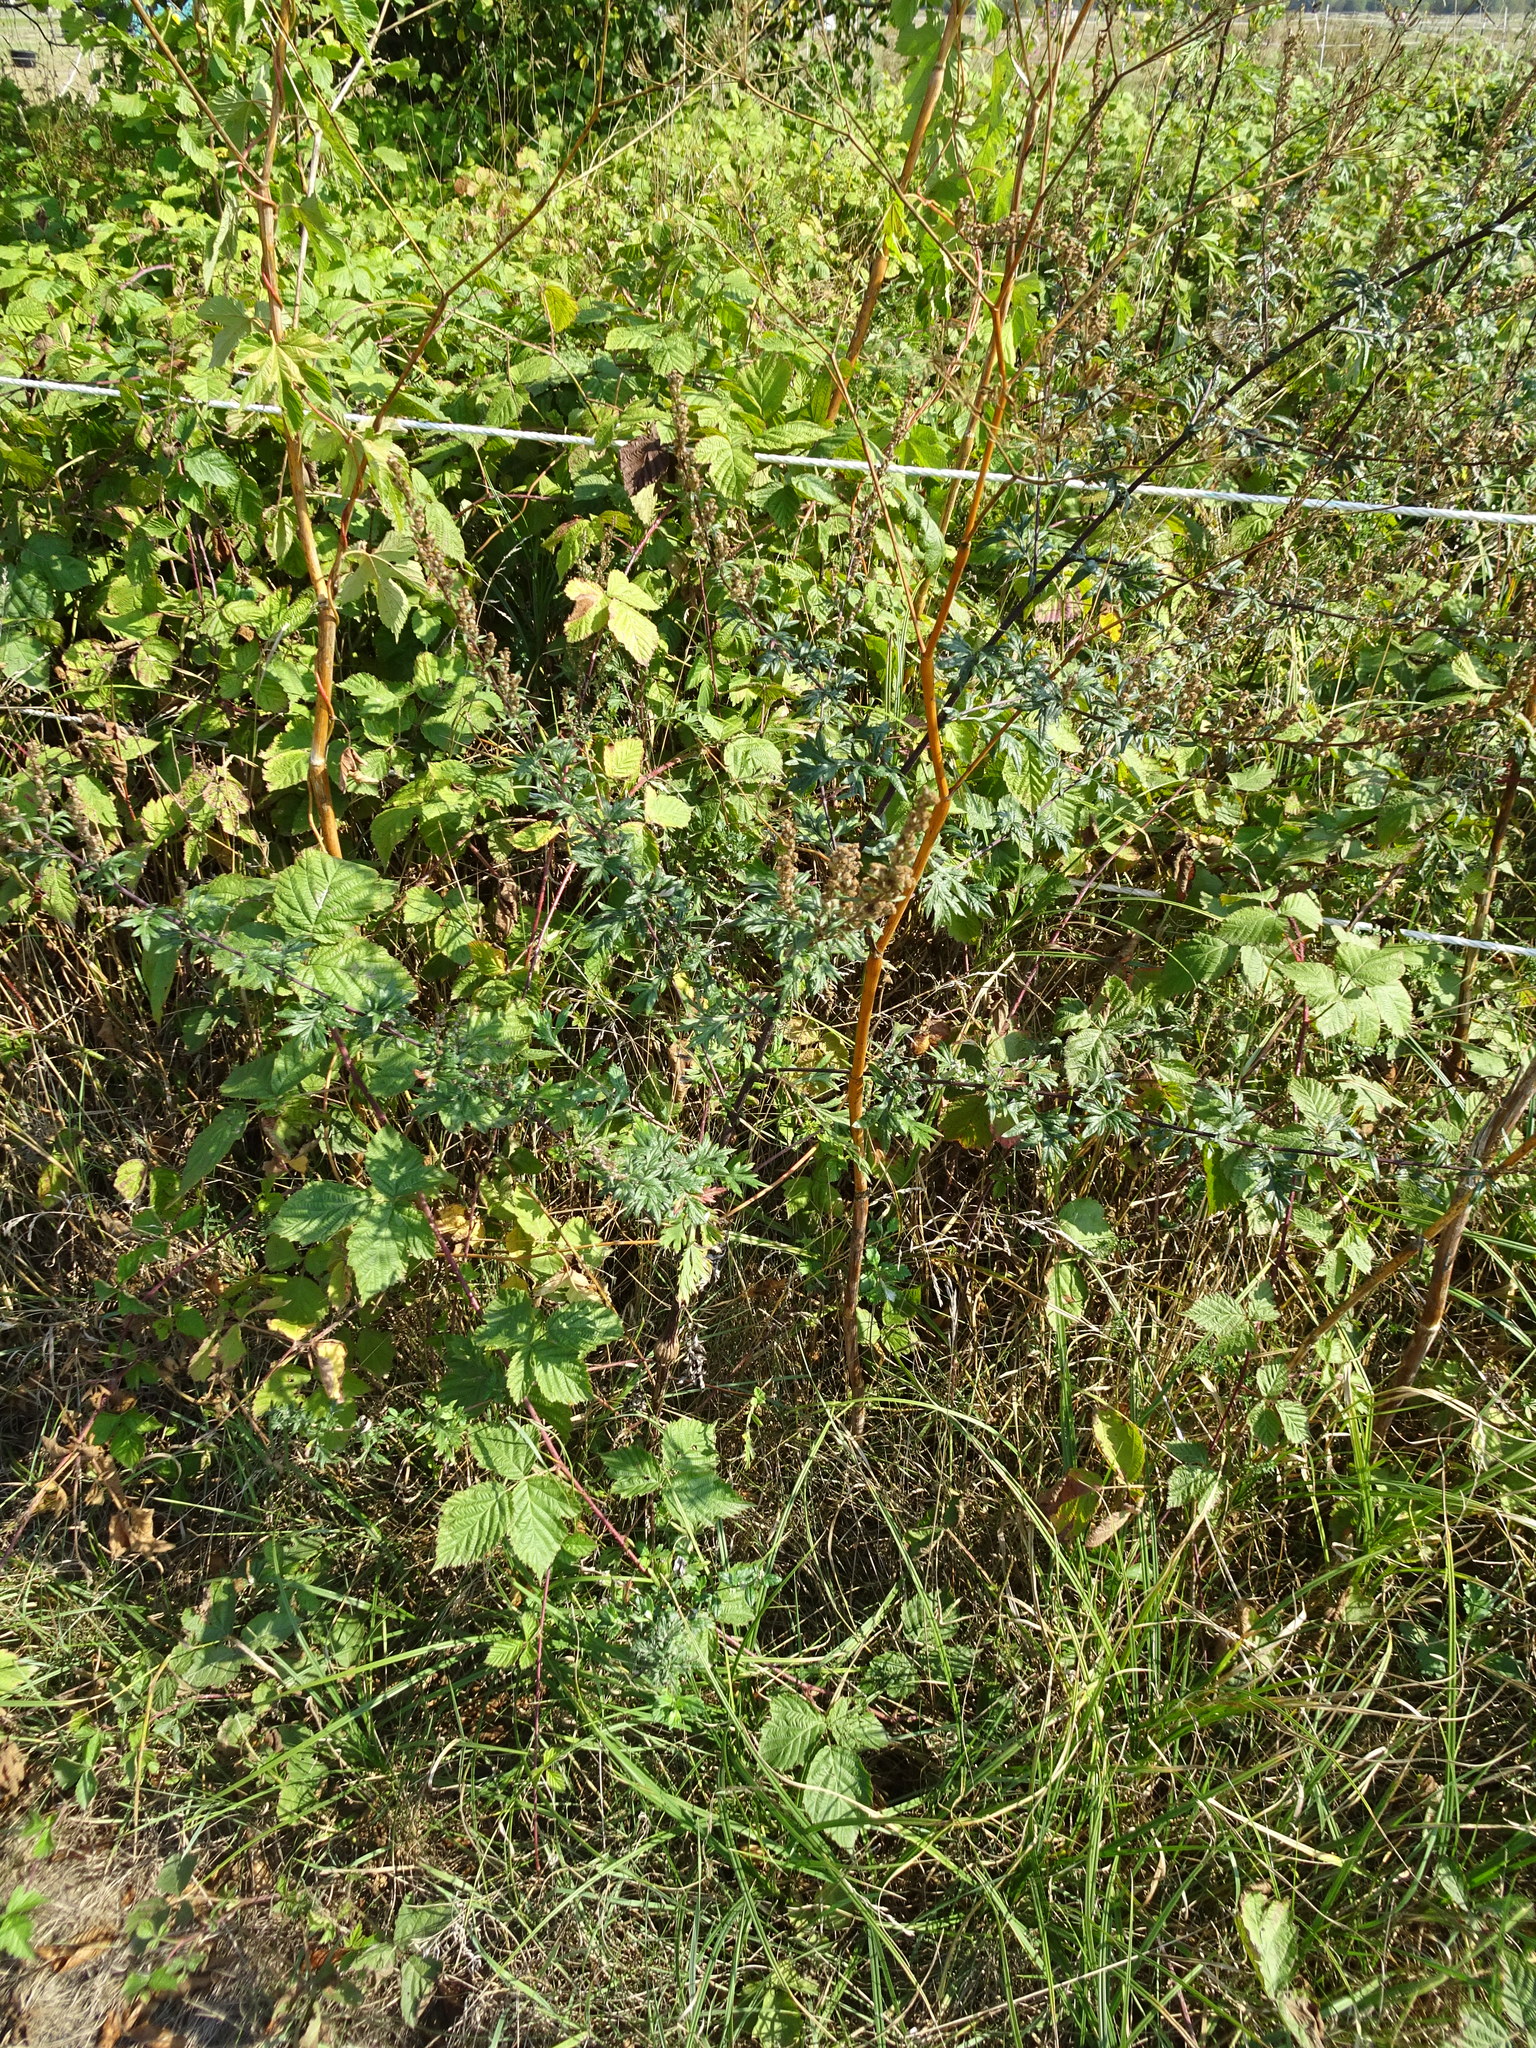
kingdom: Plantae
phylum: Tracheophyta
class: Magnoliopsida
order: Asterales
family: Asteraceae
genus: Artemisia
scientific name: Artemisia vulgaris
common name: Mugwort
